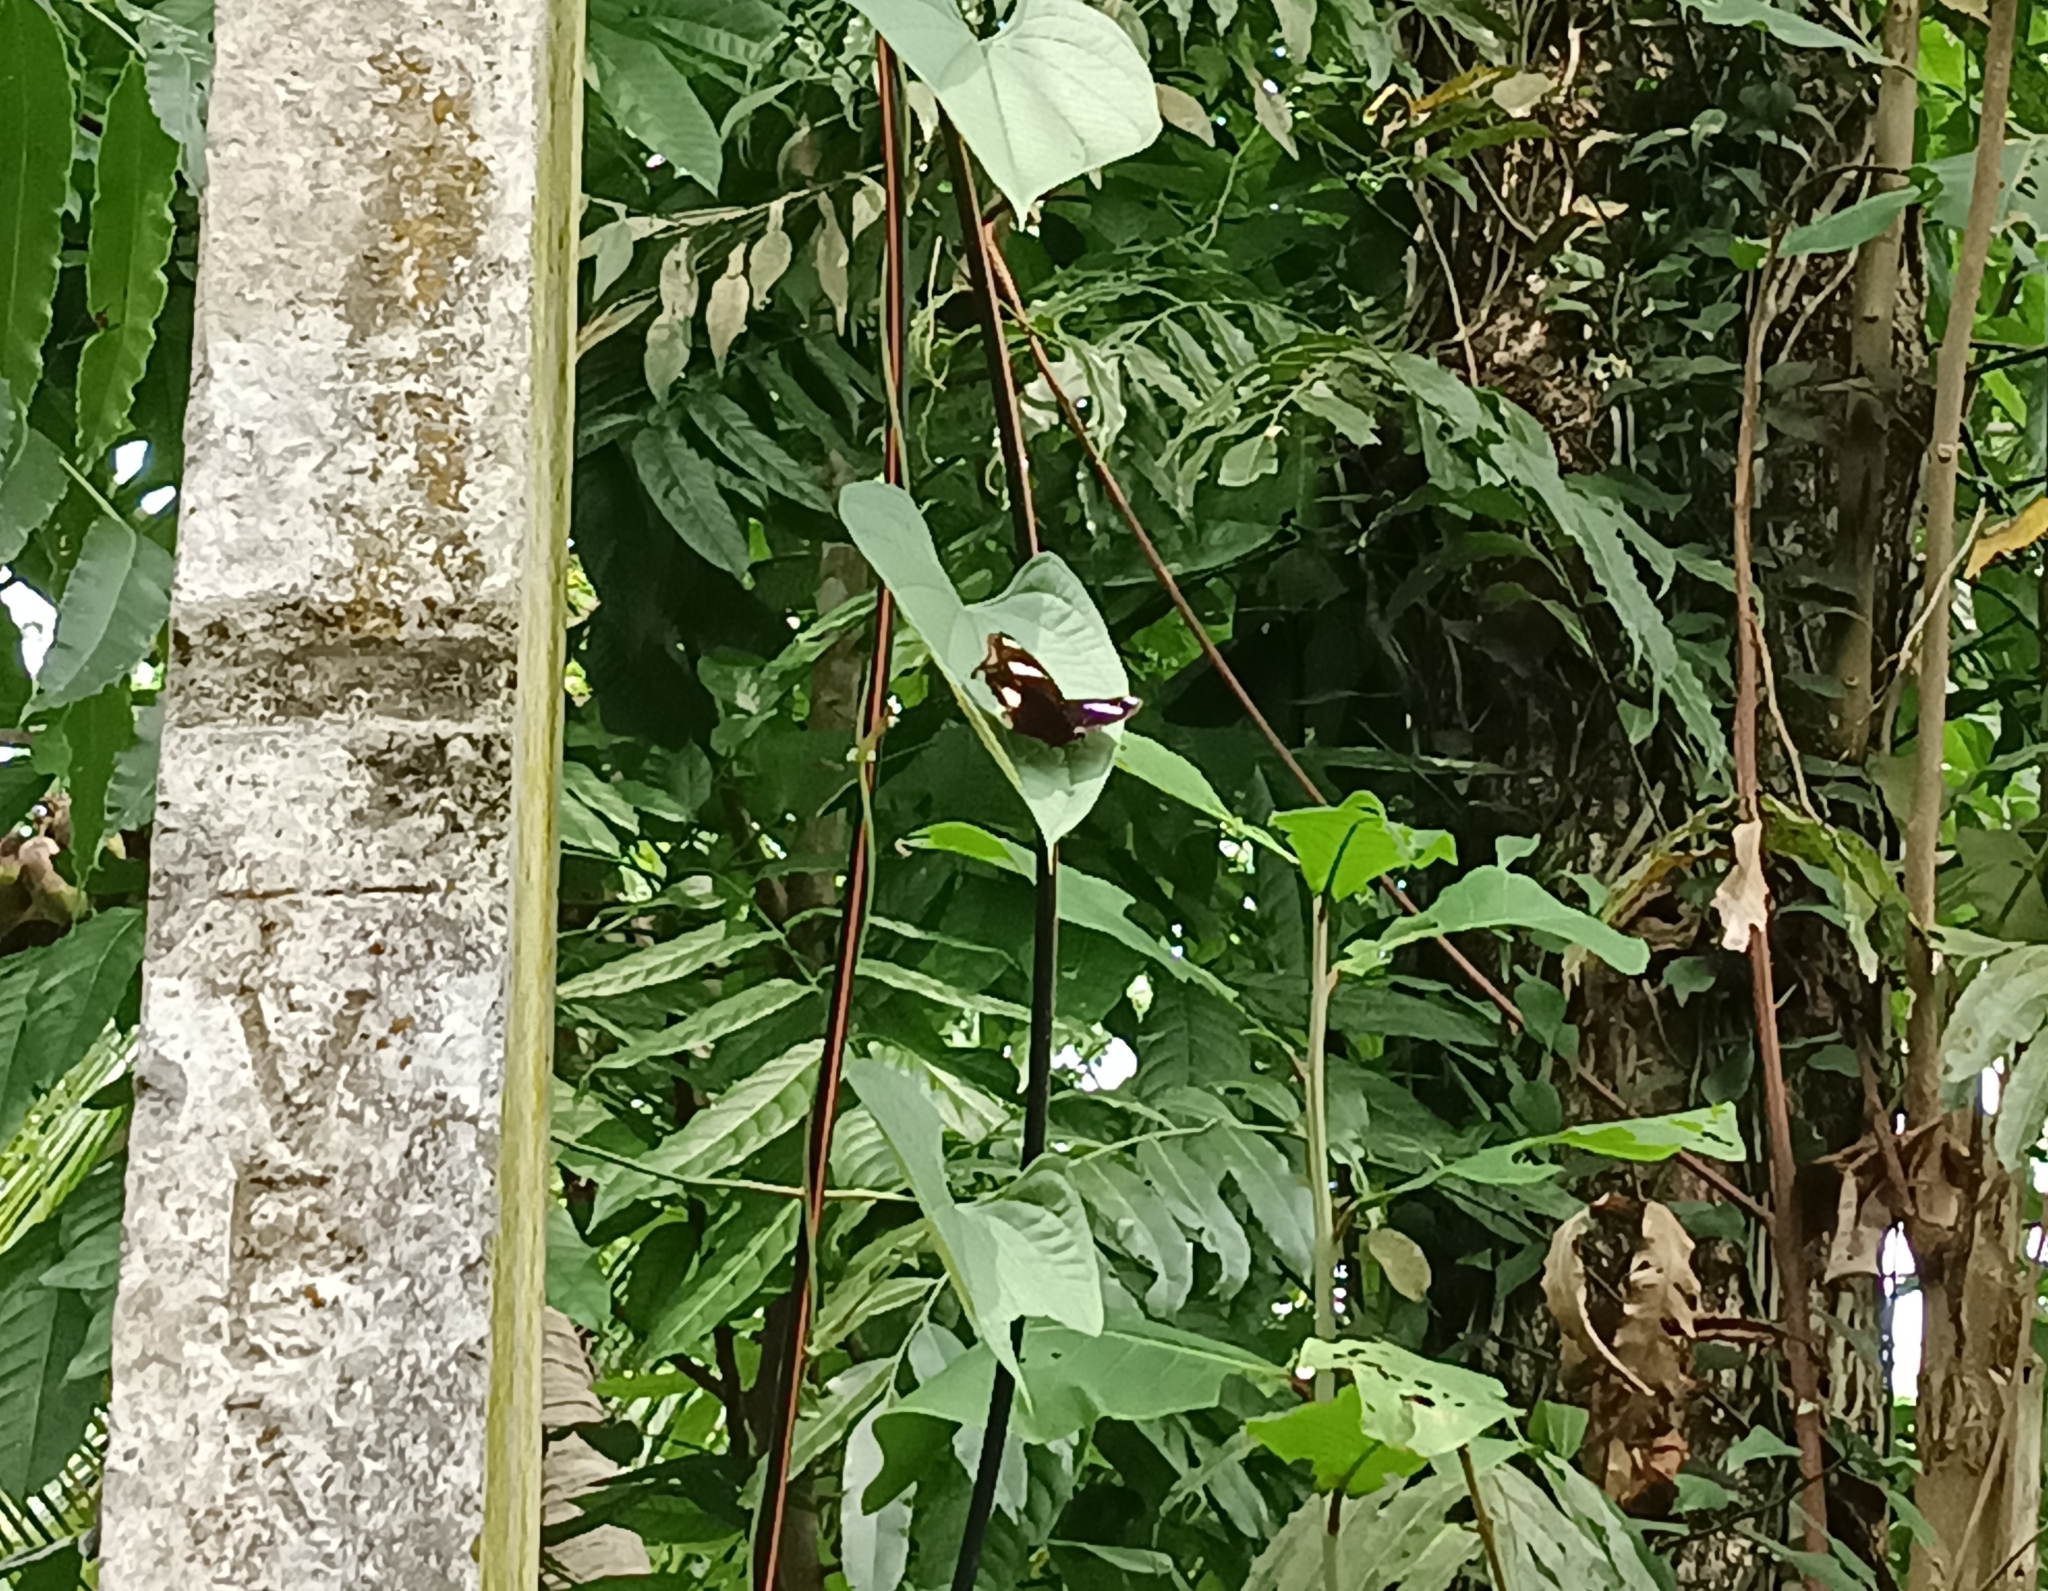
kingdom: Animalia
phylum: Arthropoda
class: Insecta
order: Lepidoptera
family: Nymphalidae
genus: Hypolimnas
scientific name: Hypolimnas bolina
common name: Great eggfly
